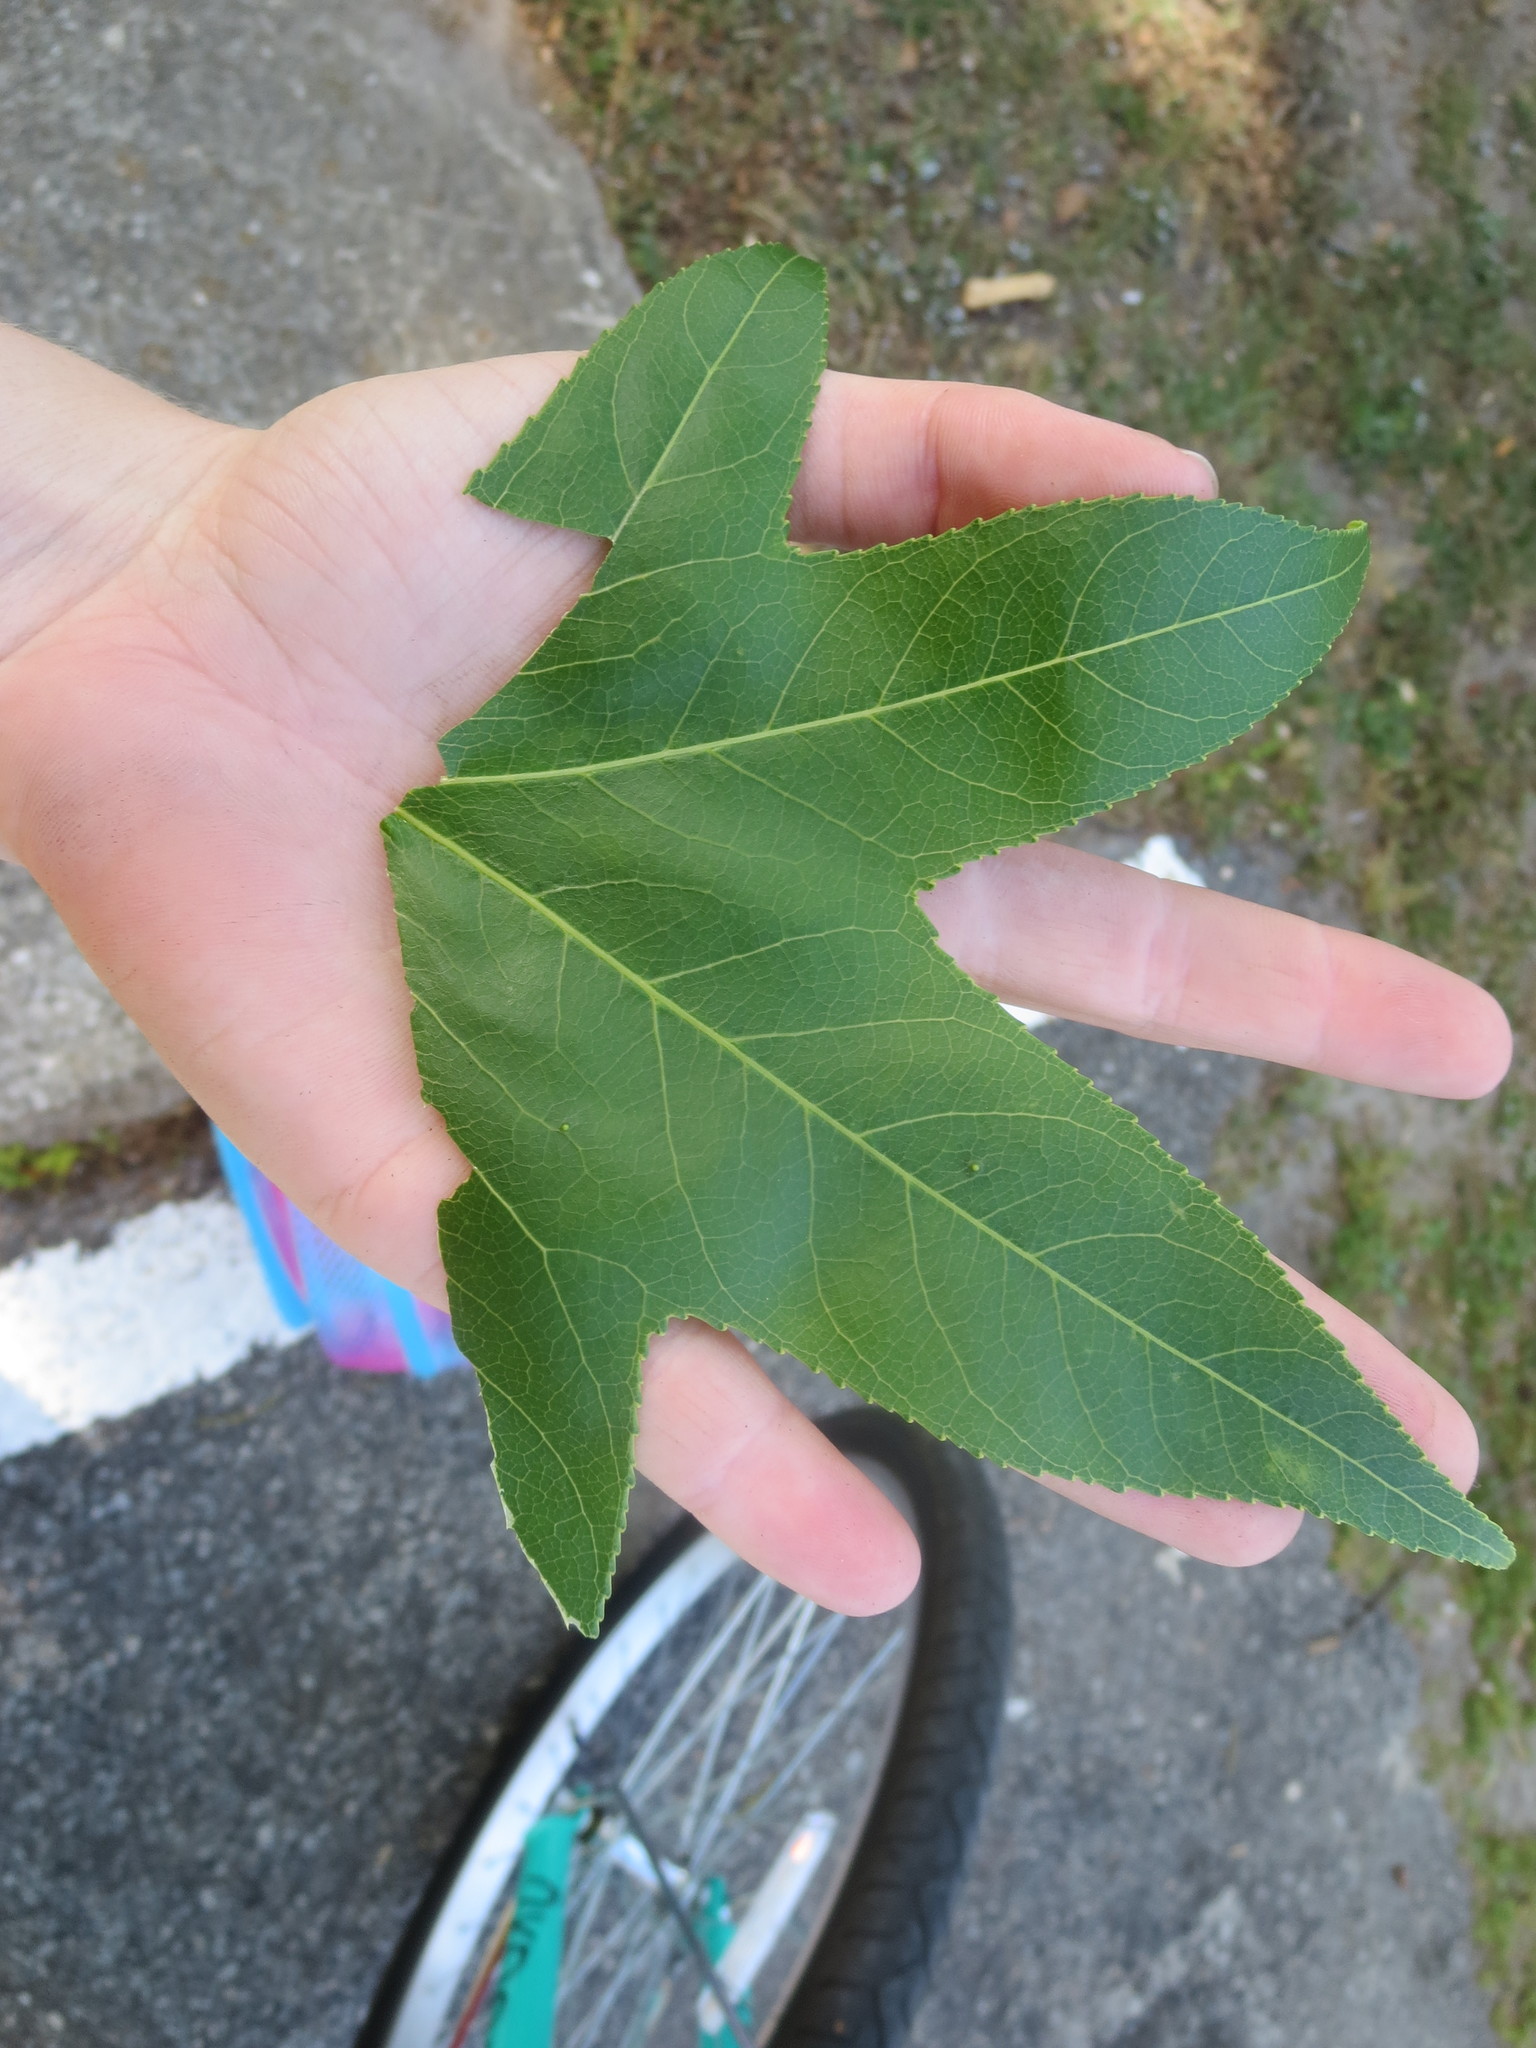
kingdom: Plantae
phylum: Tracheophyta
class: Magnoliopsida
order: Saxifragales
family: Altingiaceae
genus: Liquidambar
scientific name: Liquidambar styraciflua
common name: Sweet gum
